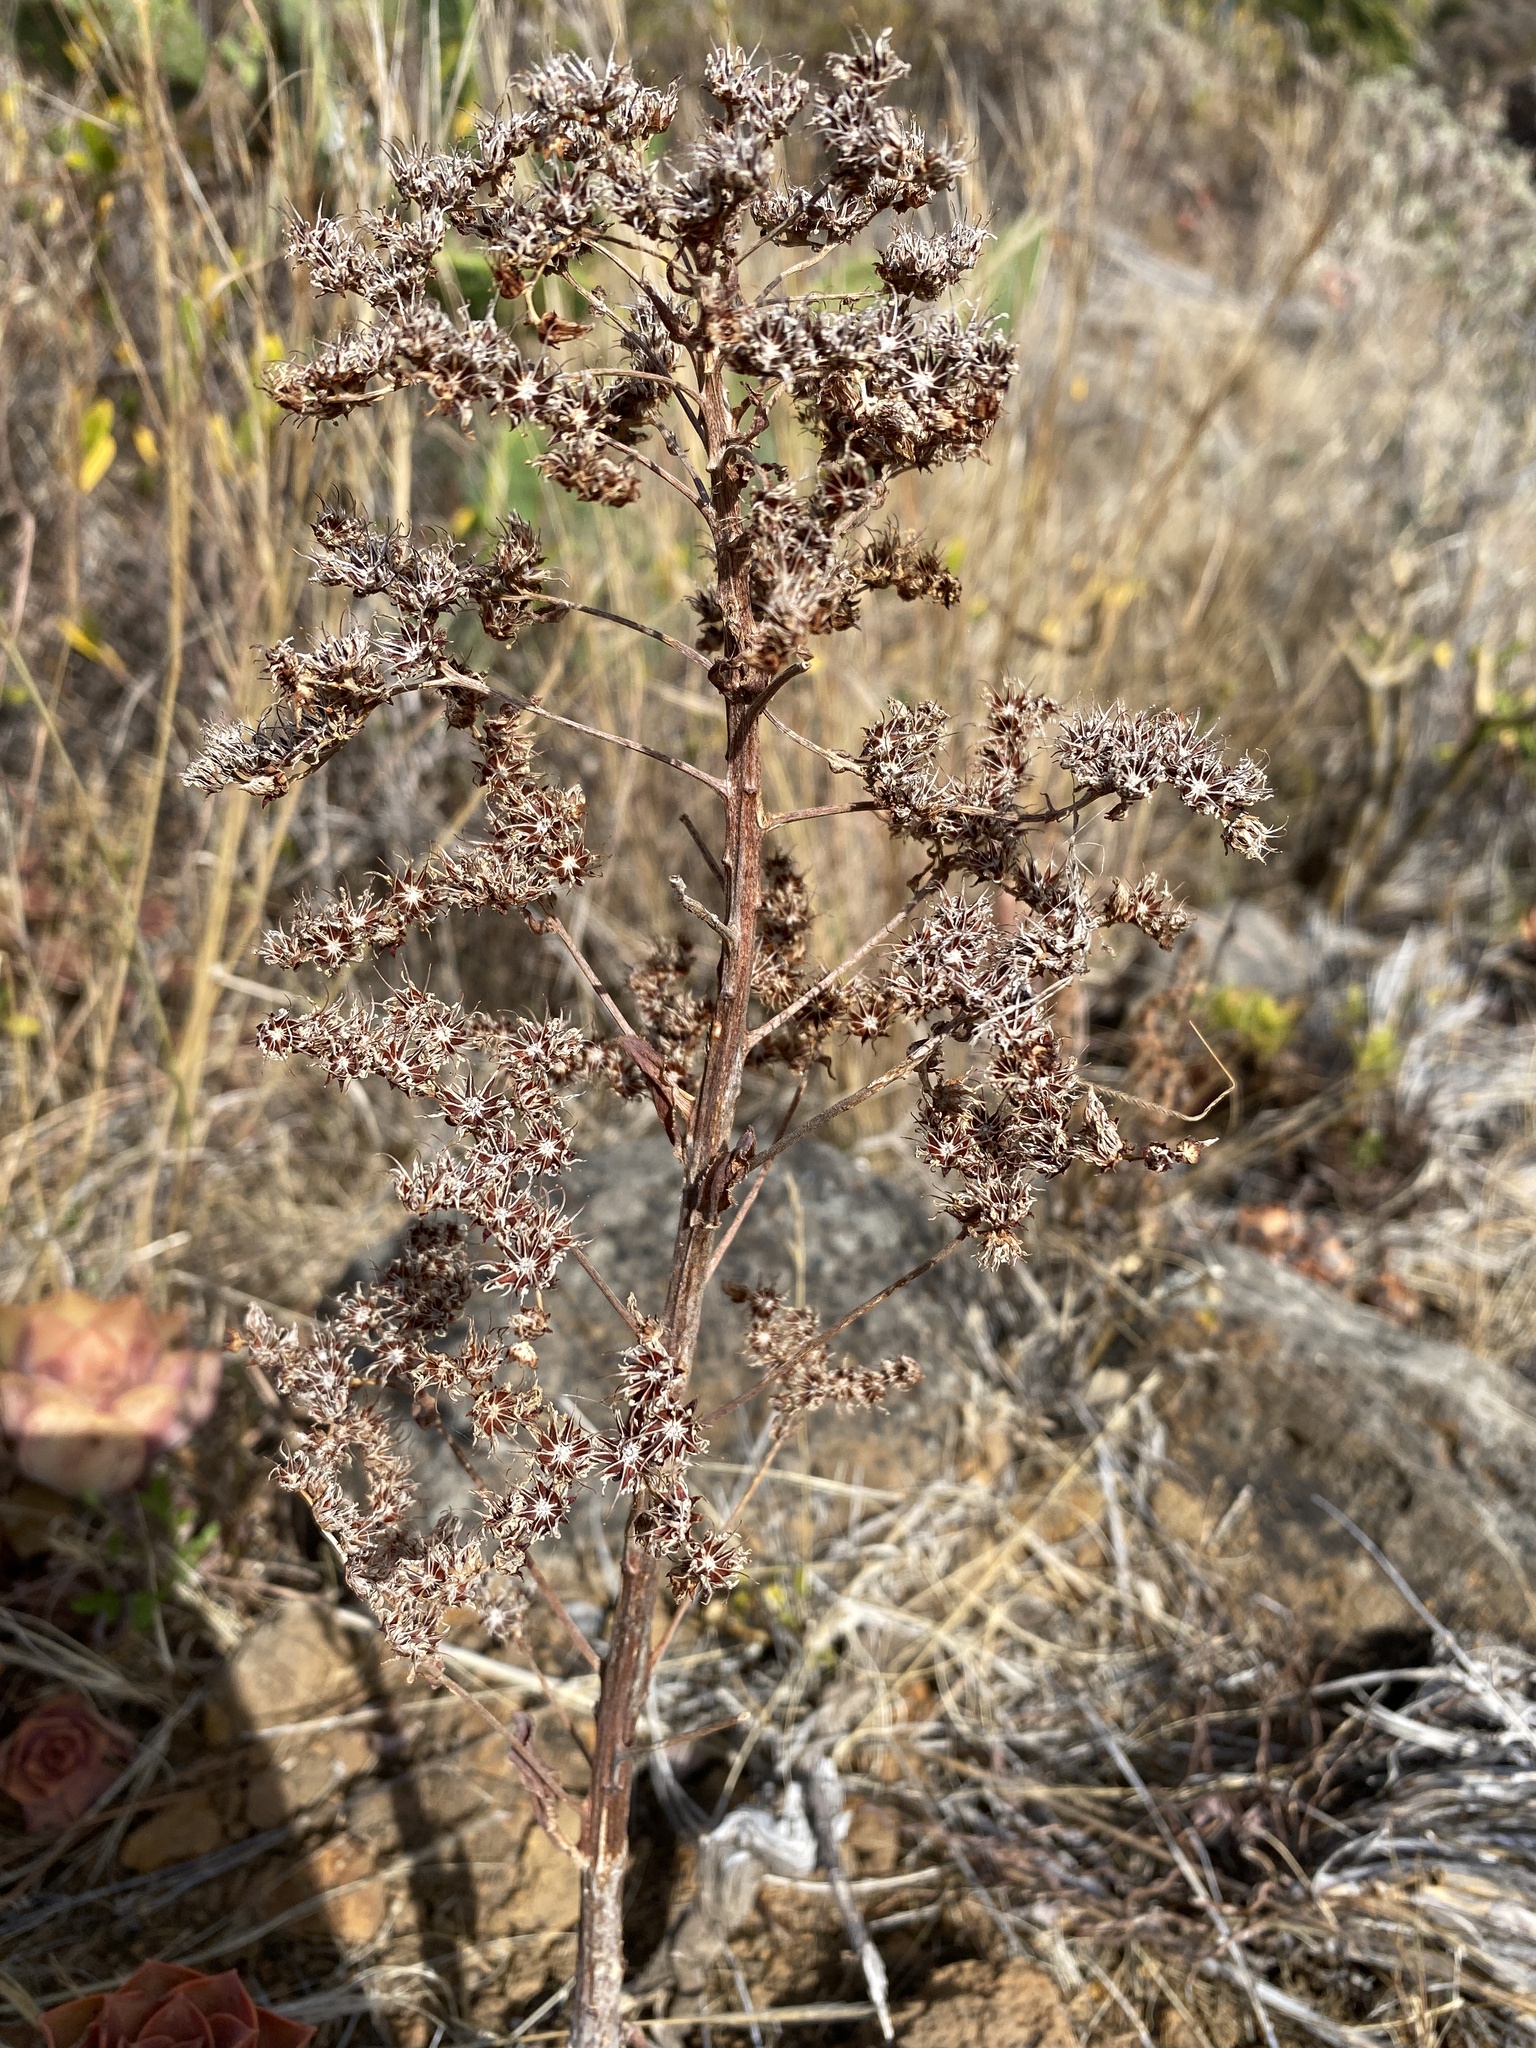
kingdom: Plantae
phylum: Tracheophyta
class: Magnoliopsida
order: Saxifragales
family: Crassulaceae
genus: Aeonium
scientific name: Aeonium davidbramwellii
